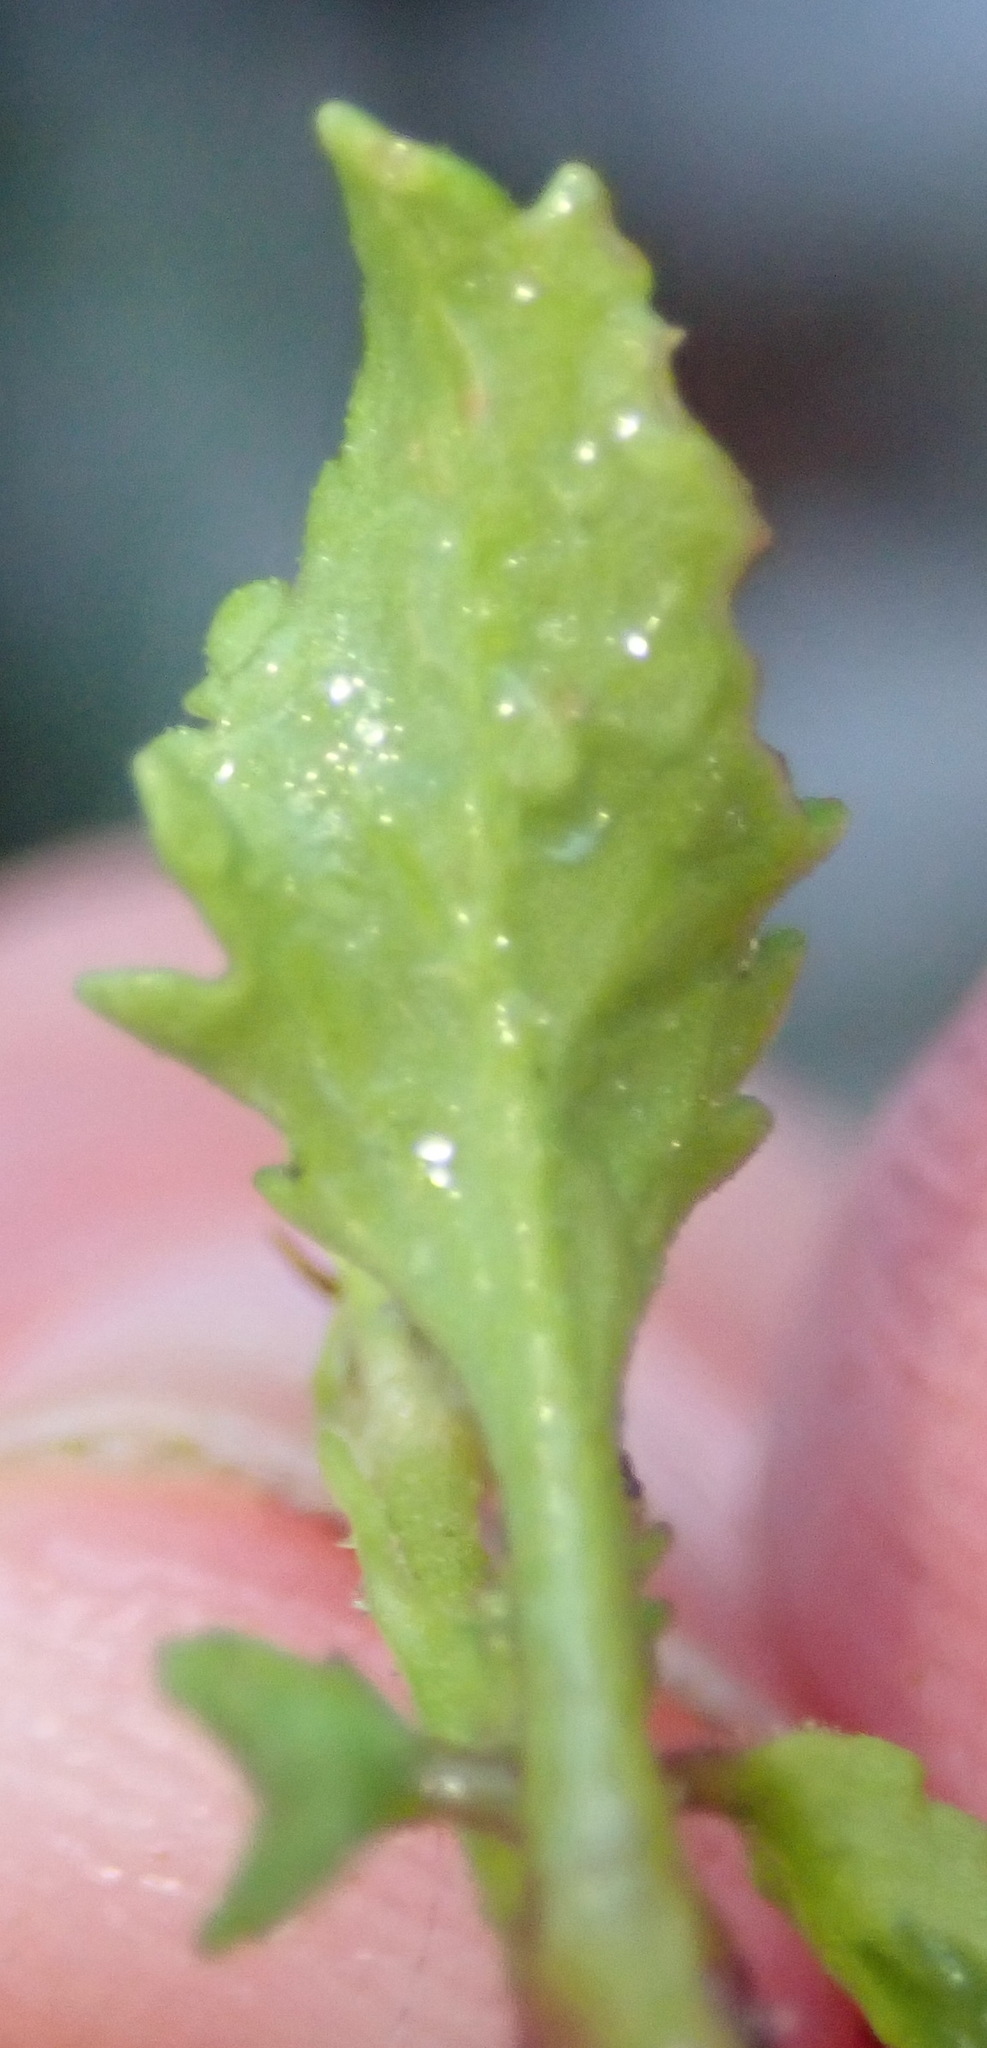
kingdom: Plantae
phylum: Tracheophyta
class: Magnoliopsida
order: Lamiales
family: Scrophulariaceae
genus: Sutera
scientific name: Sutera foetida
